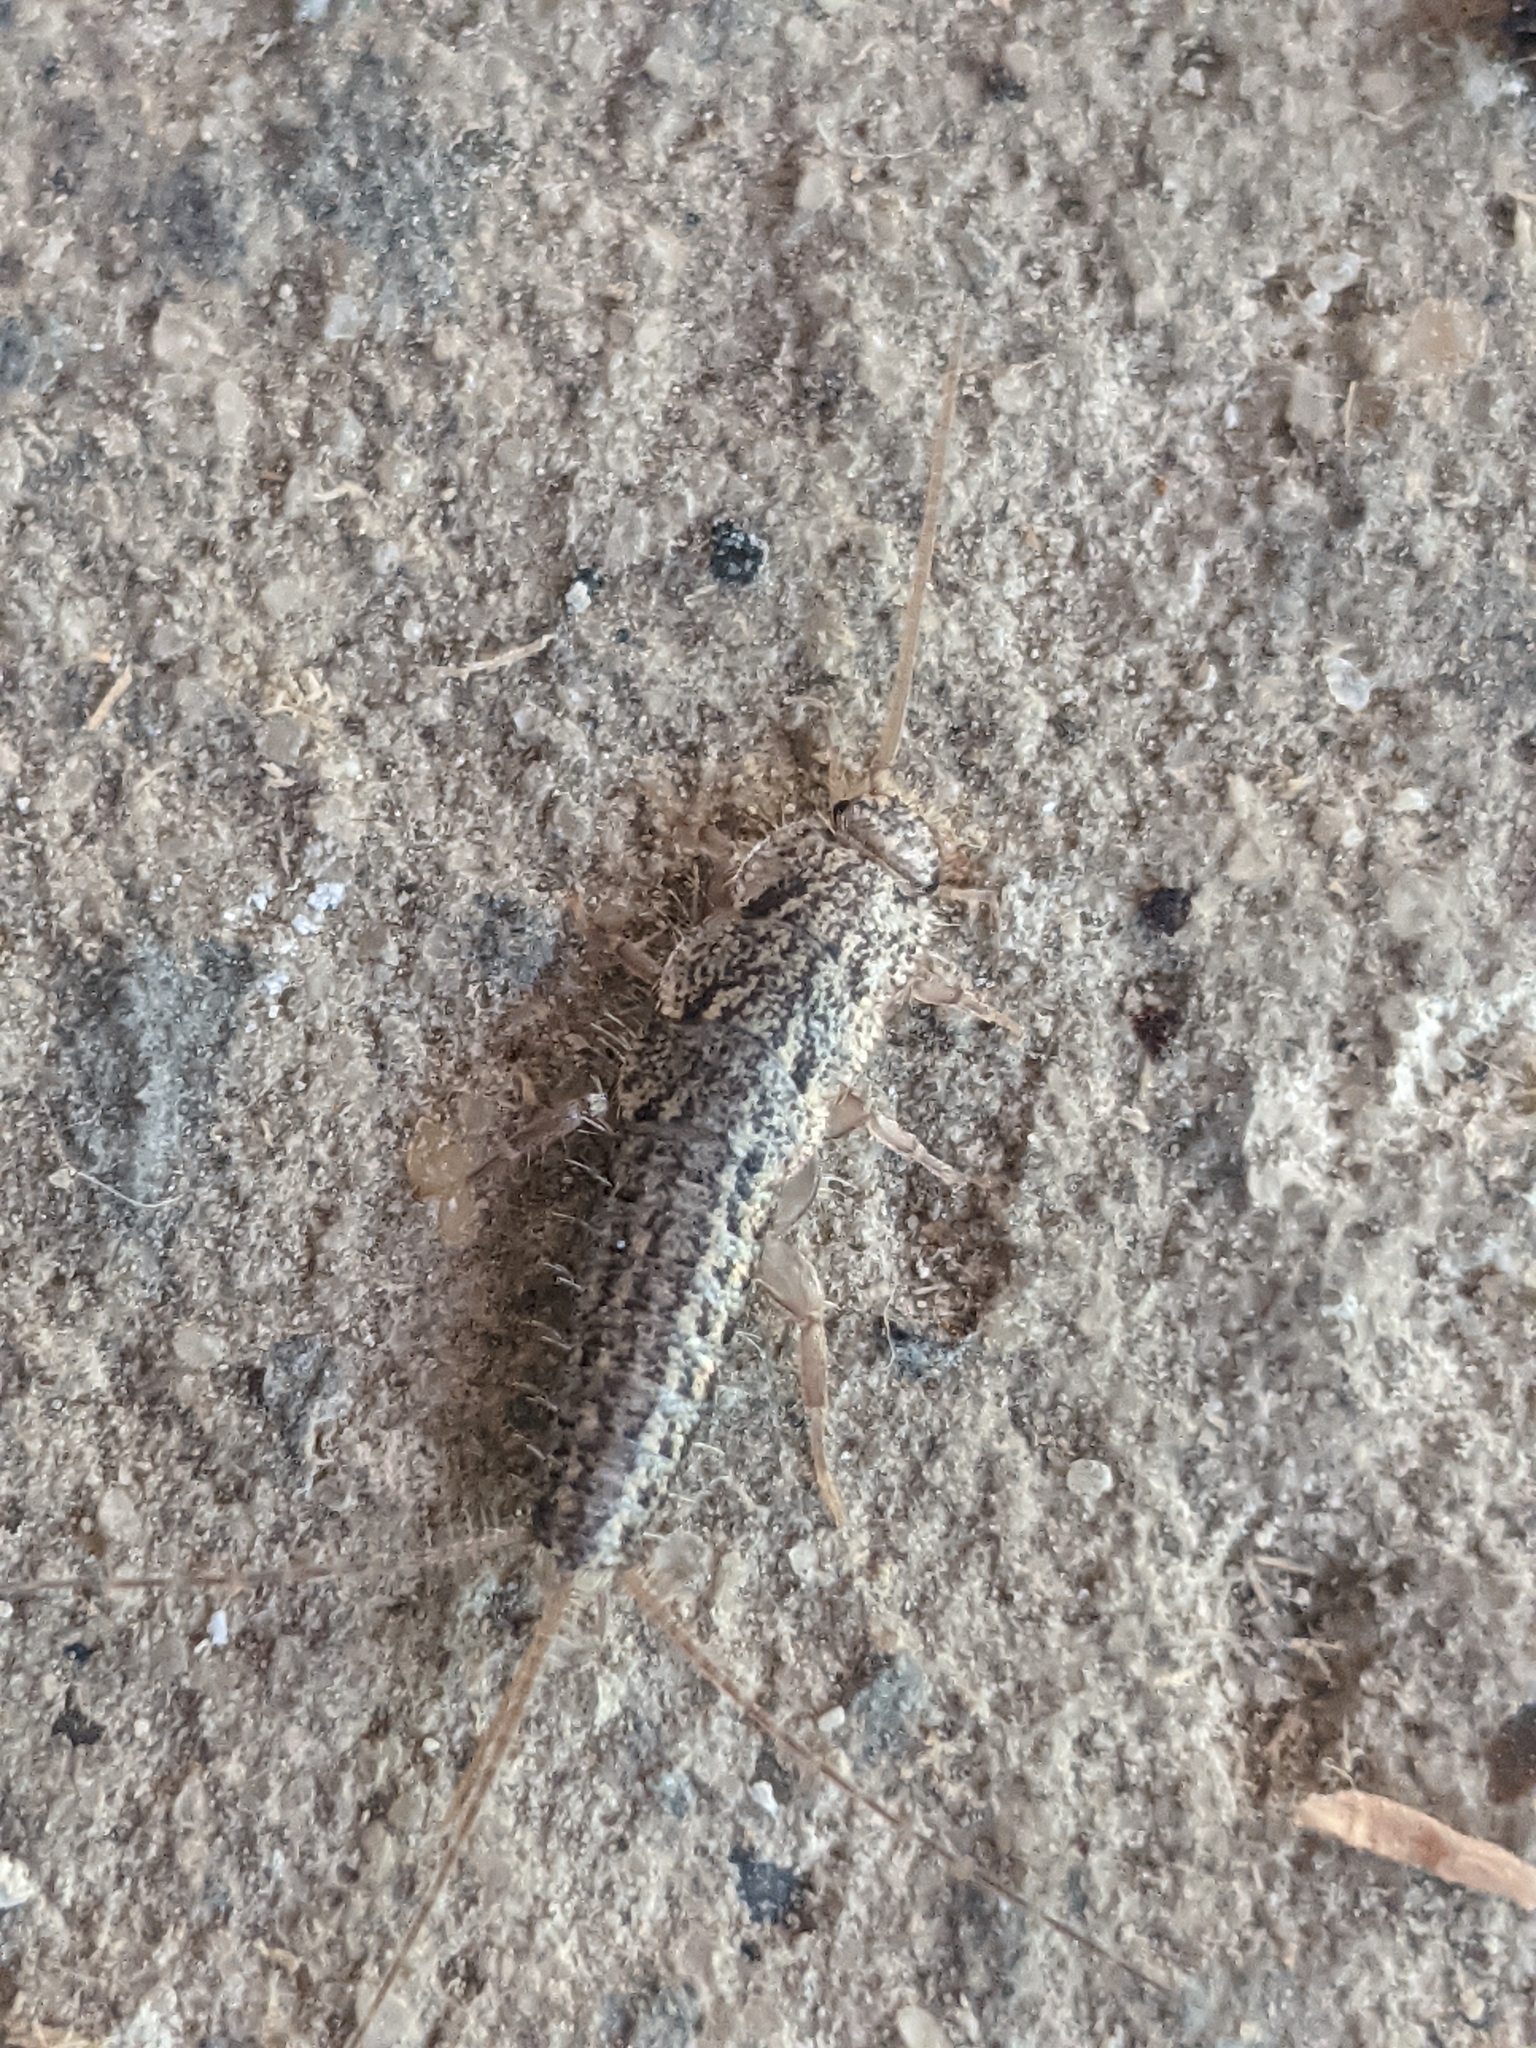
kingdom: Animalia
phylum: Arthropoda
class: Insecta
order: Zygentoma
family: Lepismatidae
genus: Ctenolepisma
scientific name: Ctenolepisma lineata
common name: Four-lined silverfish
